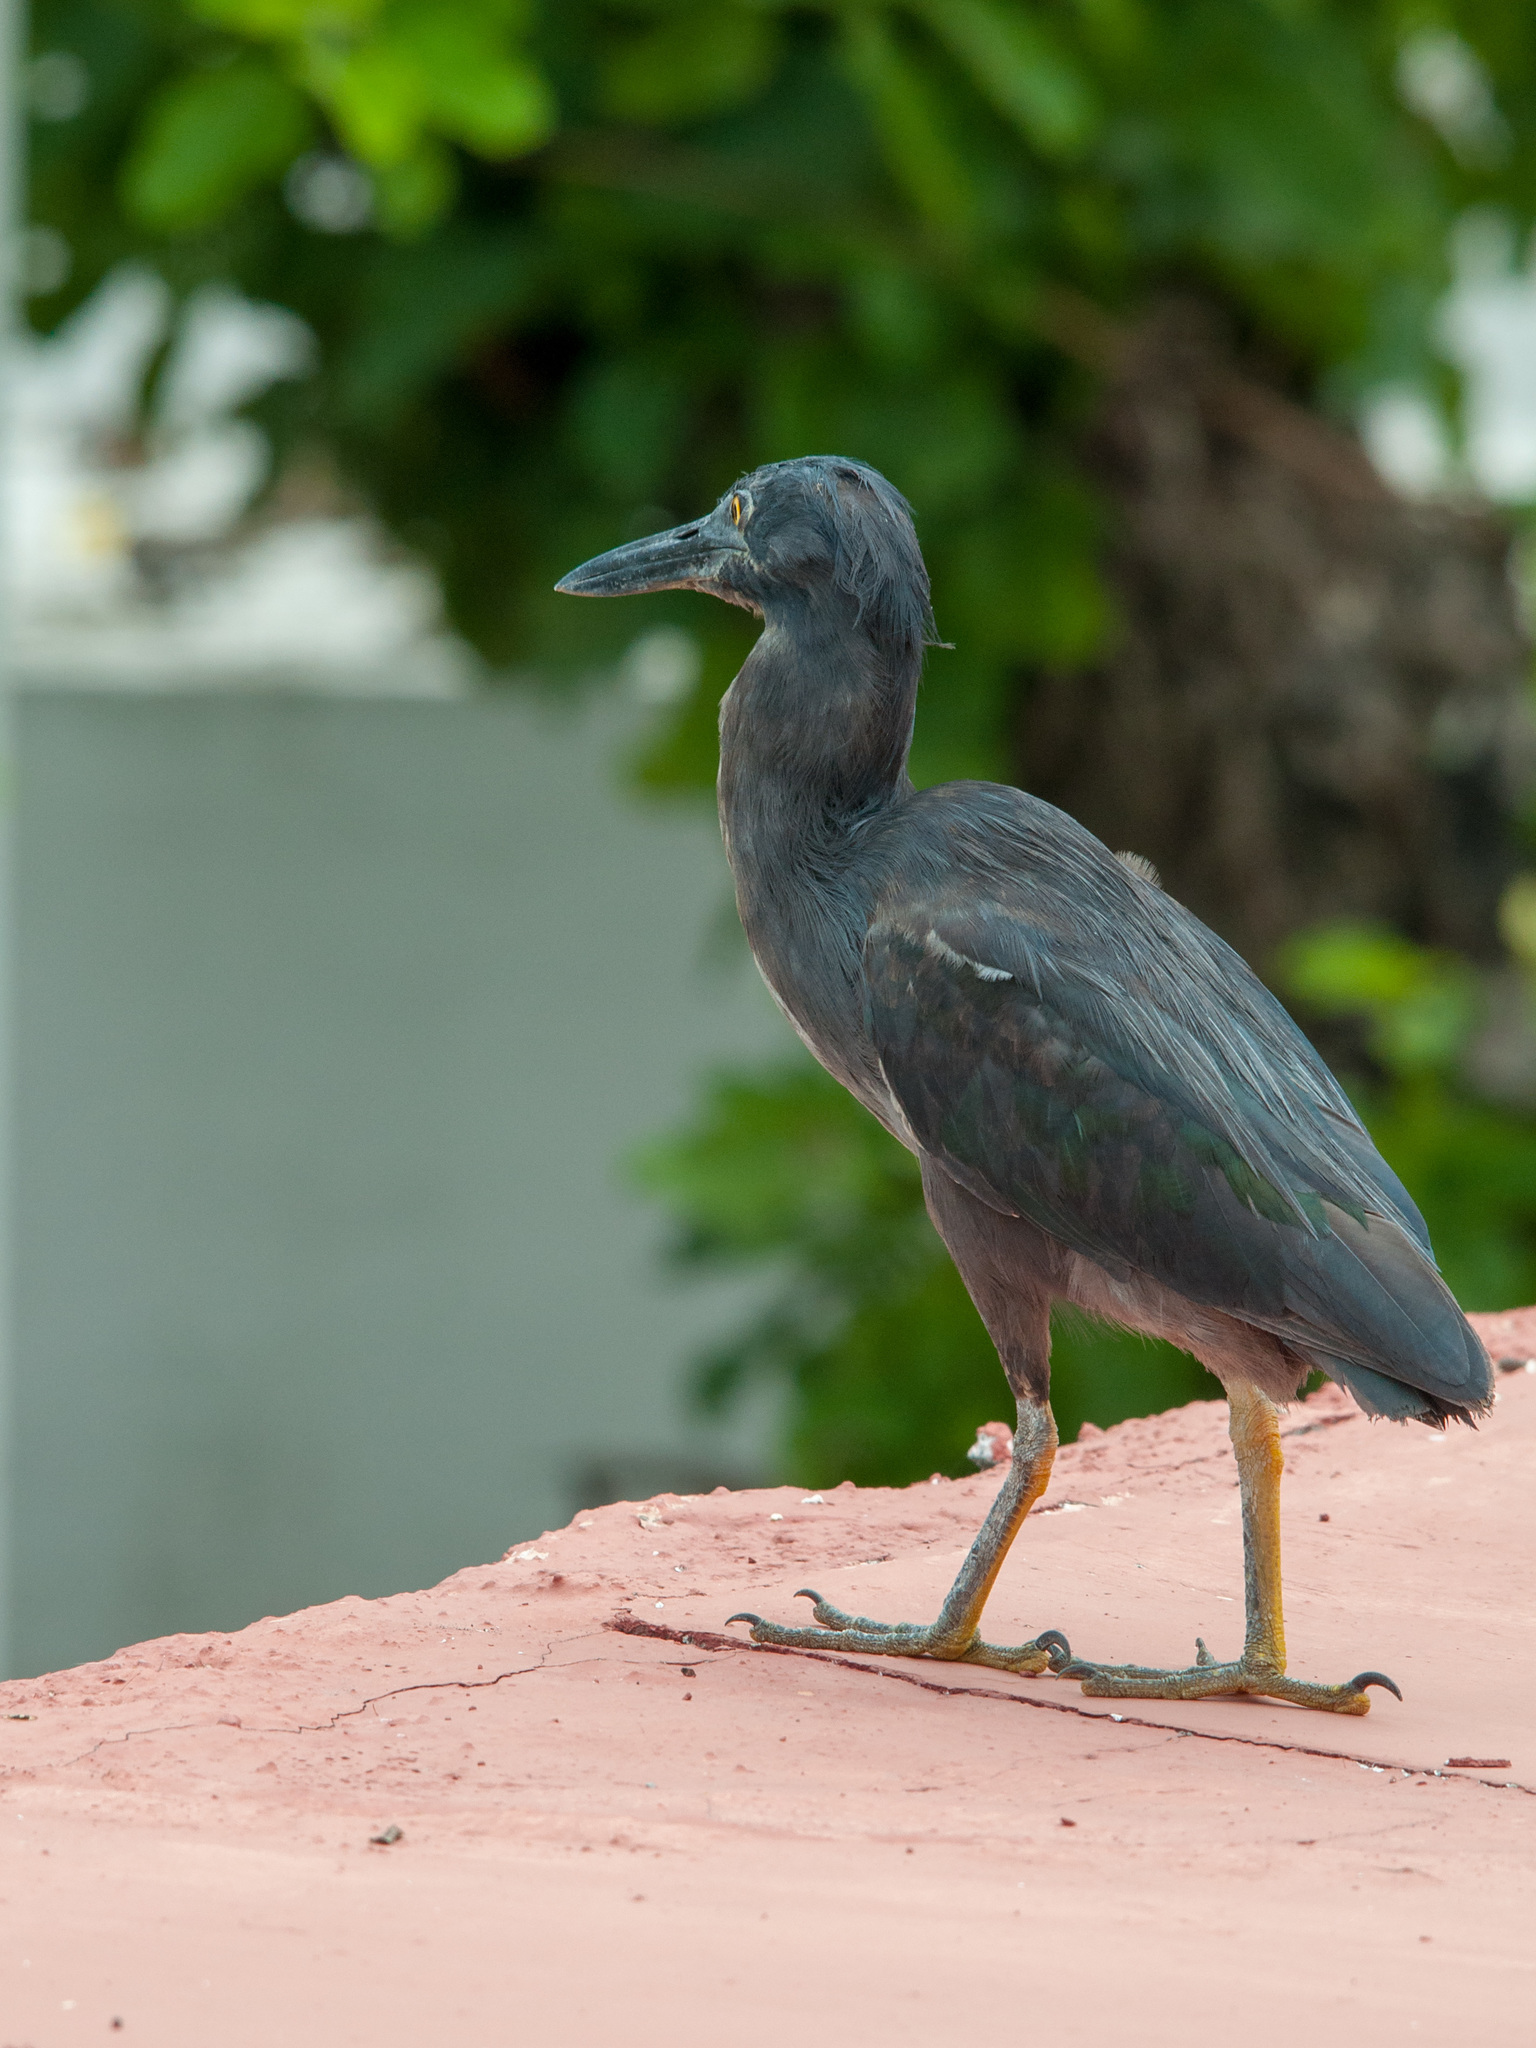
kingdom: Animalia
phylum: Chordata
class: Aves
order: Pelecaniformes
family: Ardeidae
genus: Butorides
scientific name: Butorides striata
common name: Striated heron
